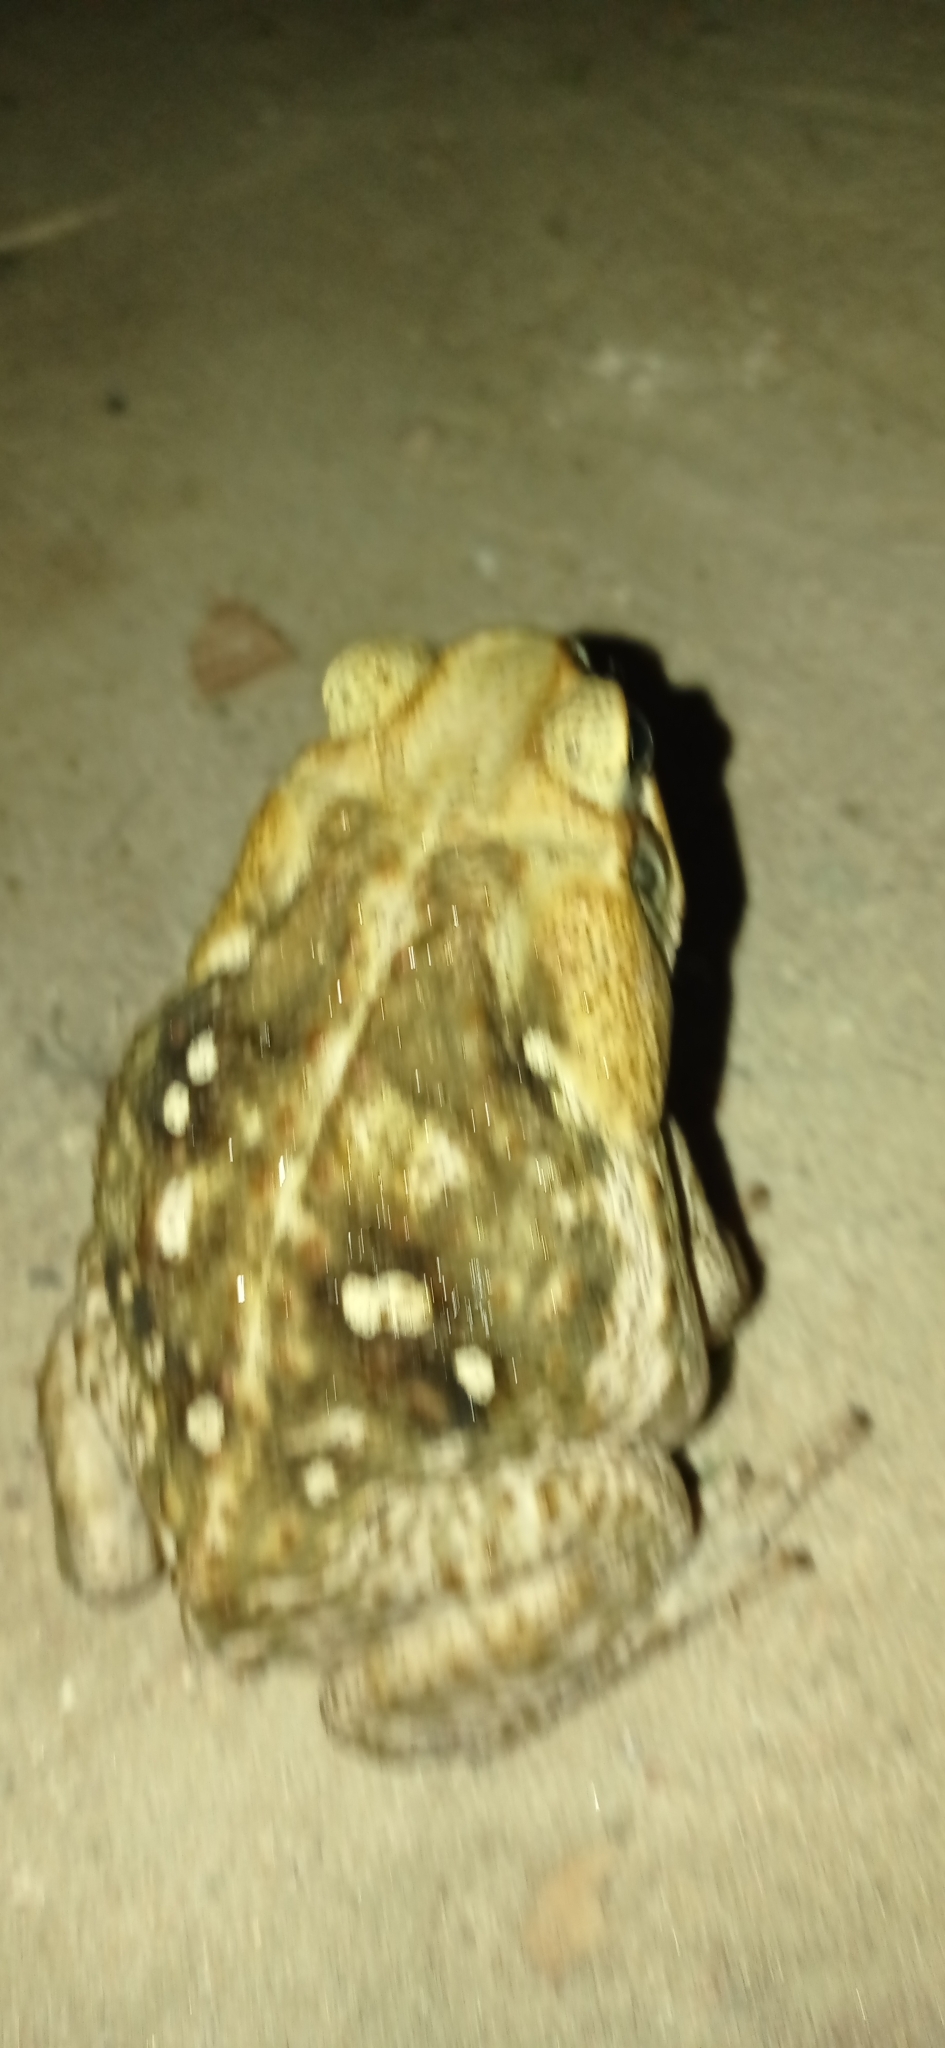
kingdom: Animalia
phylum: Chordata
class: Amphibia
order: Anura
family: Bufonidae
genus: Rhinella
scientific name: Rhinella diptycha
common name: Cope's toad
